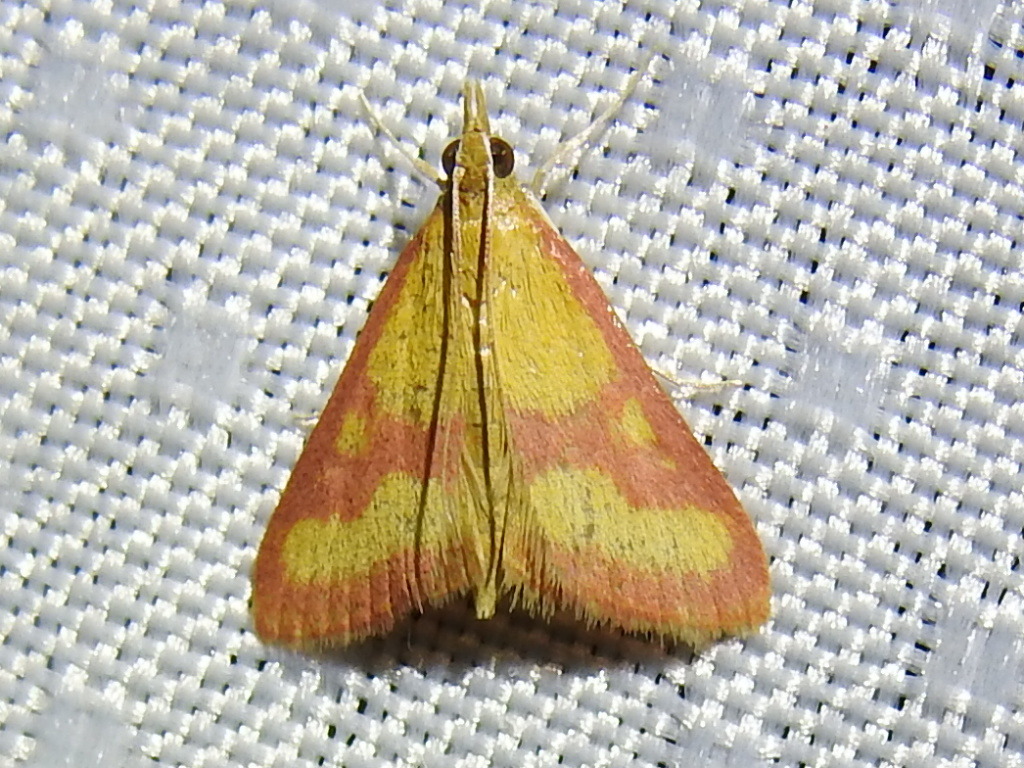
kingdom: Animalia
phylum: Arthropoda
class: Insecta
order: Lepidoptera
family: Crambidae
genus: Pyrausta
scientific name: Pyrausta laticlavia
